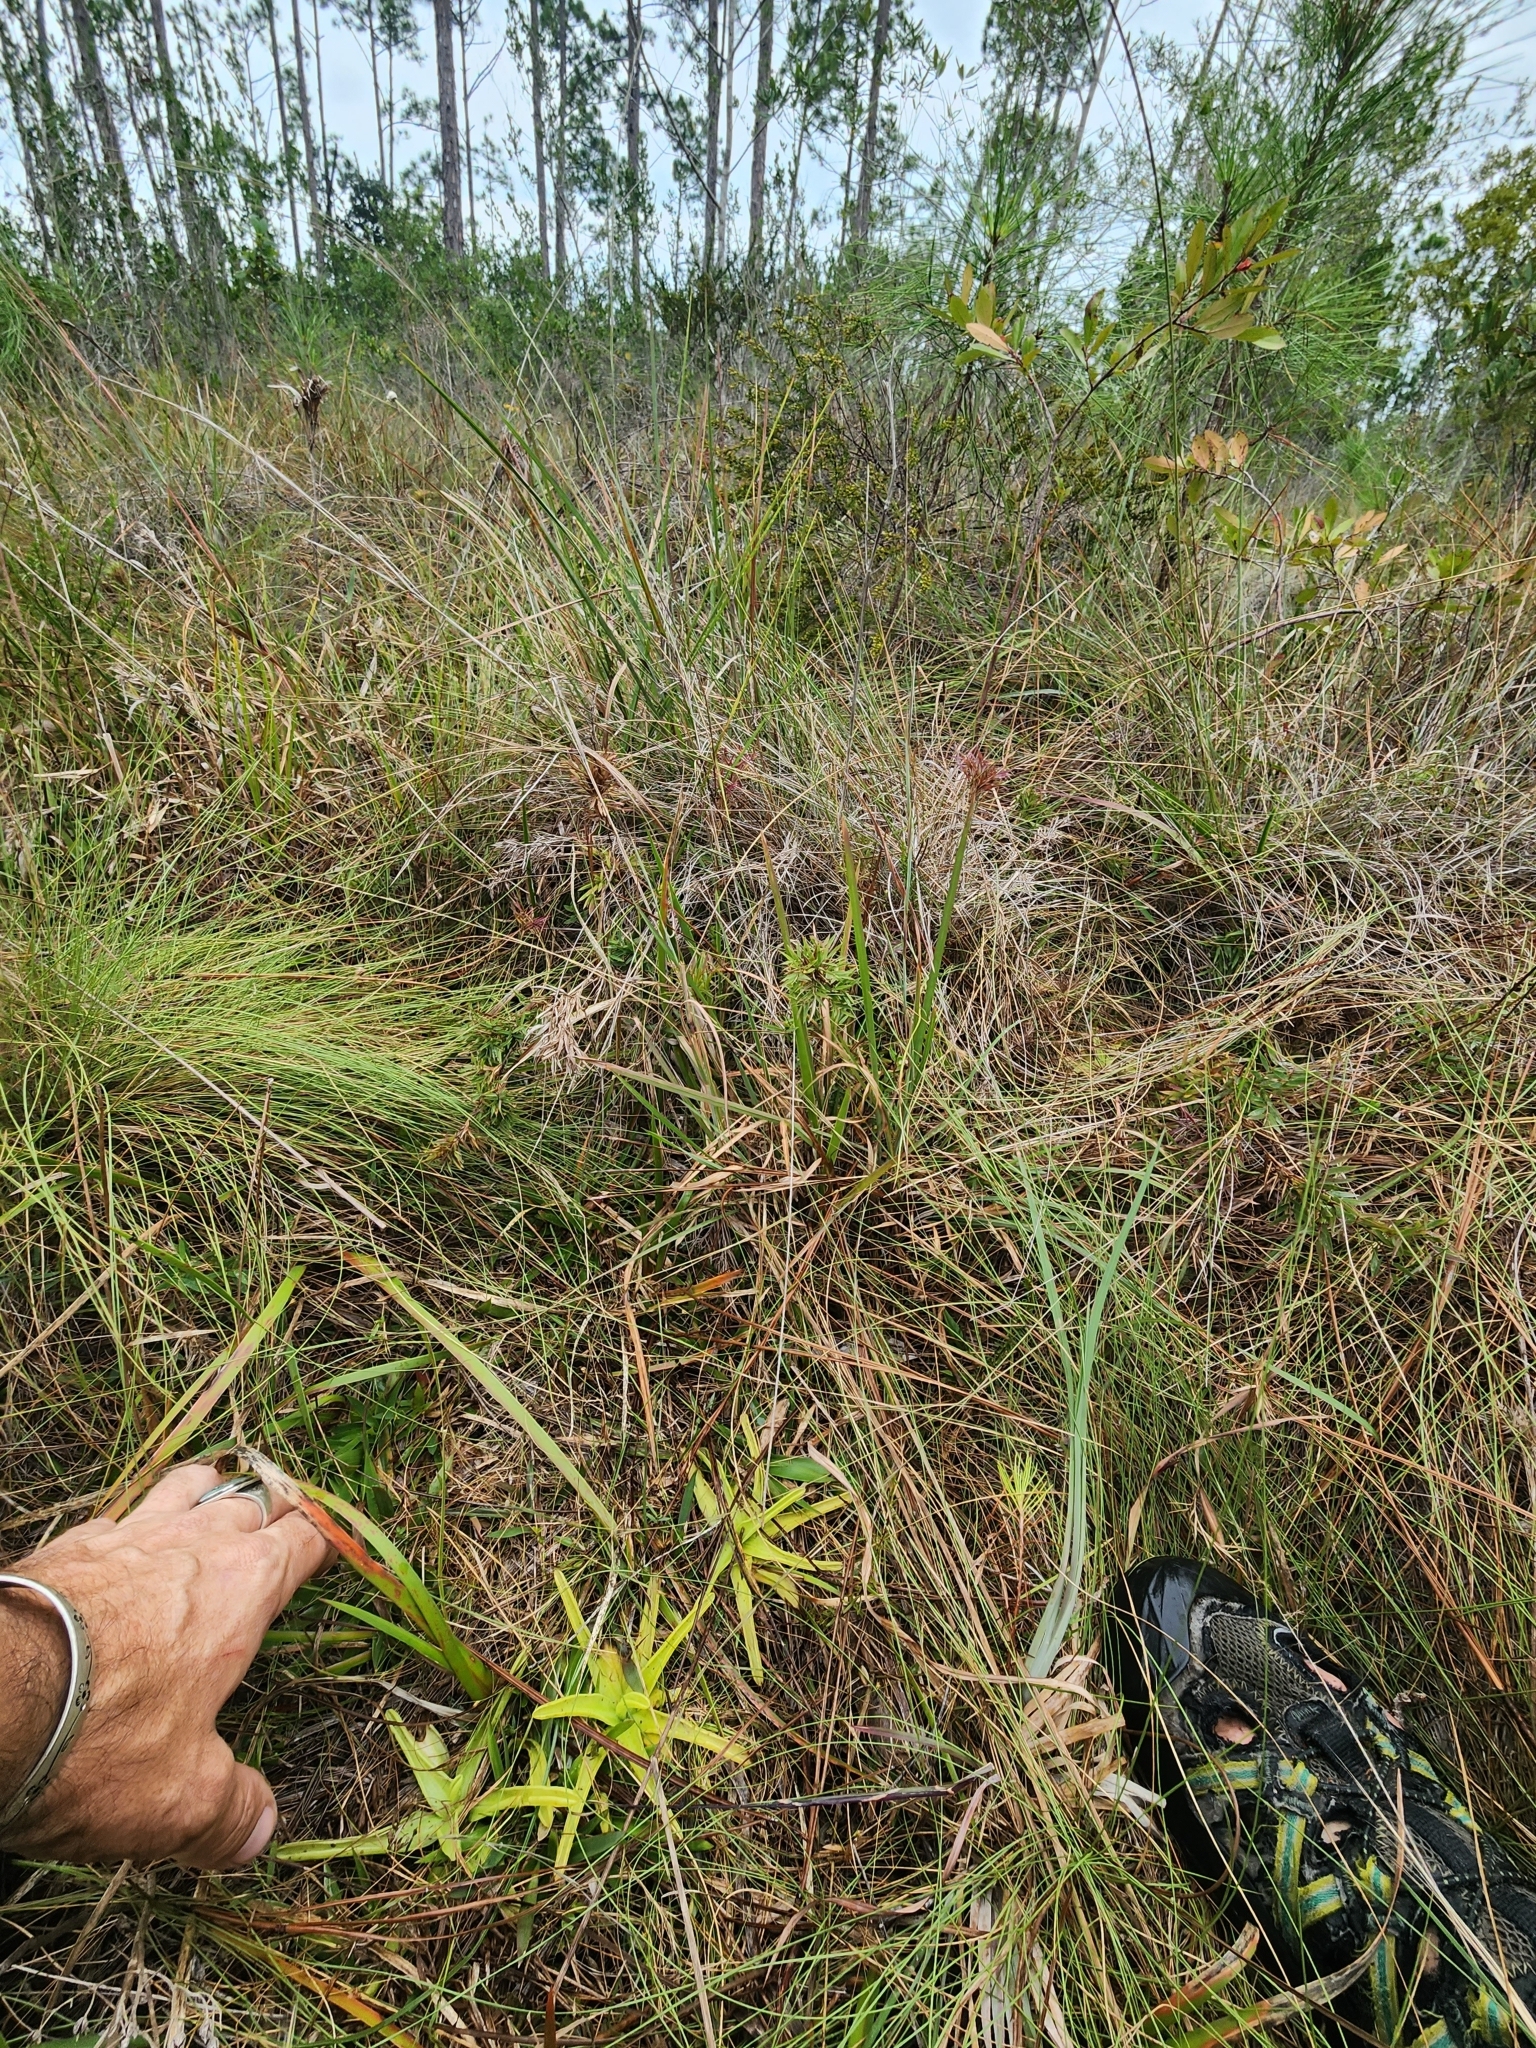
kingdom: Plantae
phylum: Tracheophyta
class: Magnoliopsida
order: Lamiales
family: Lentibulariaceae
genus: Pinguicula
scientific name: Pinguicula lutea
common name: Yellow butterwort
